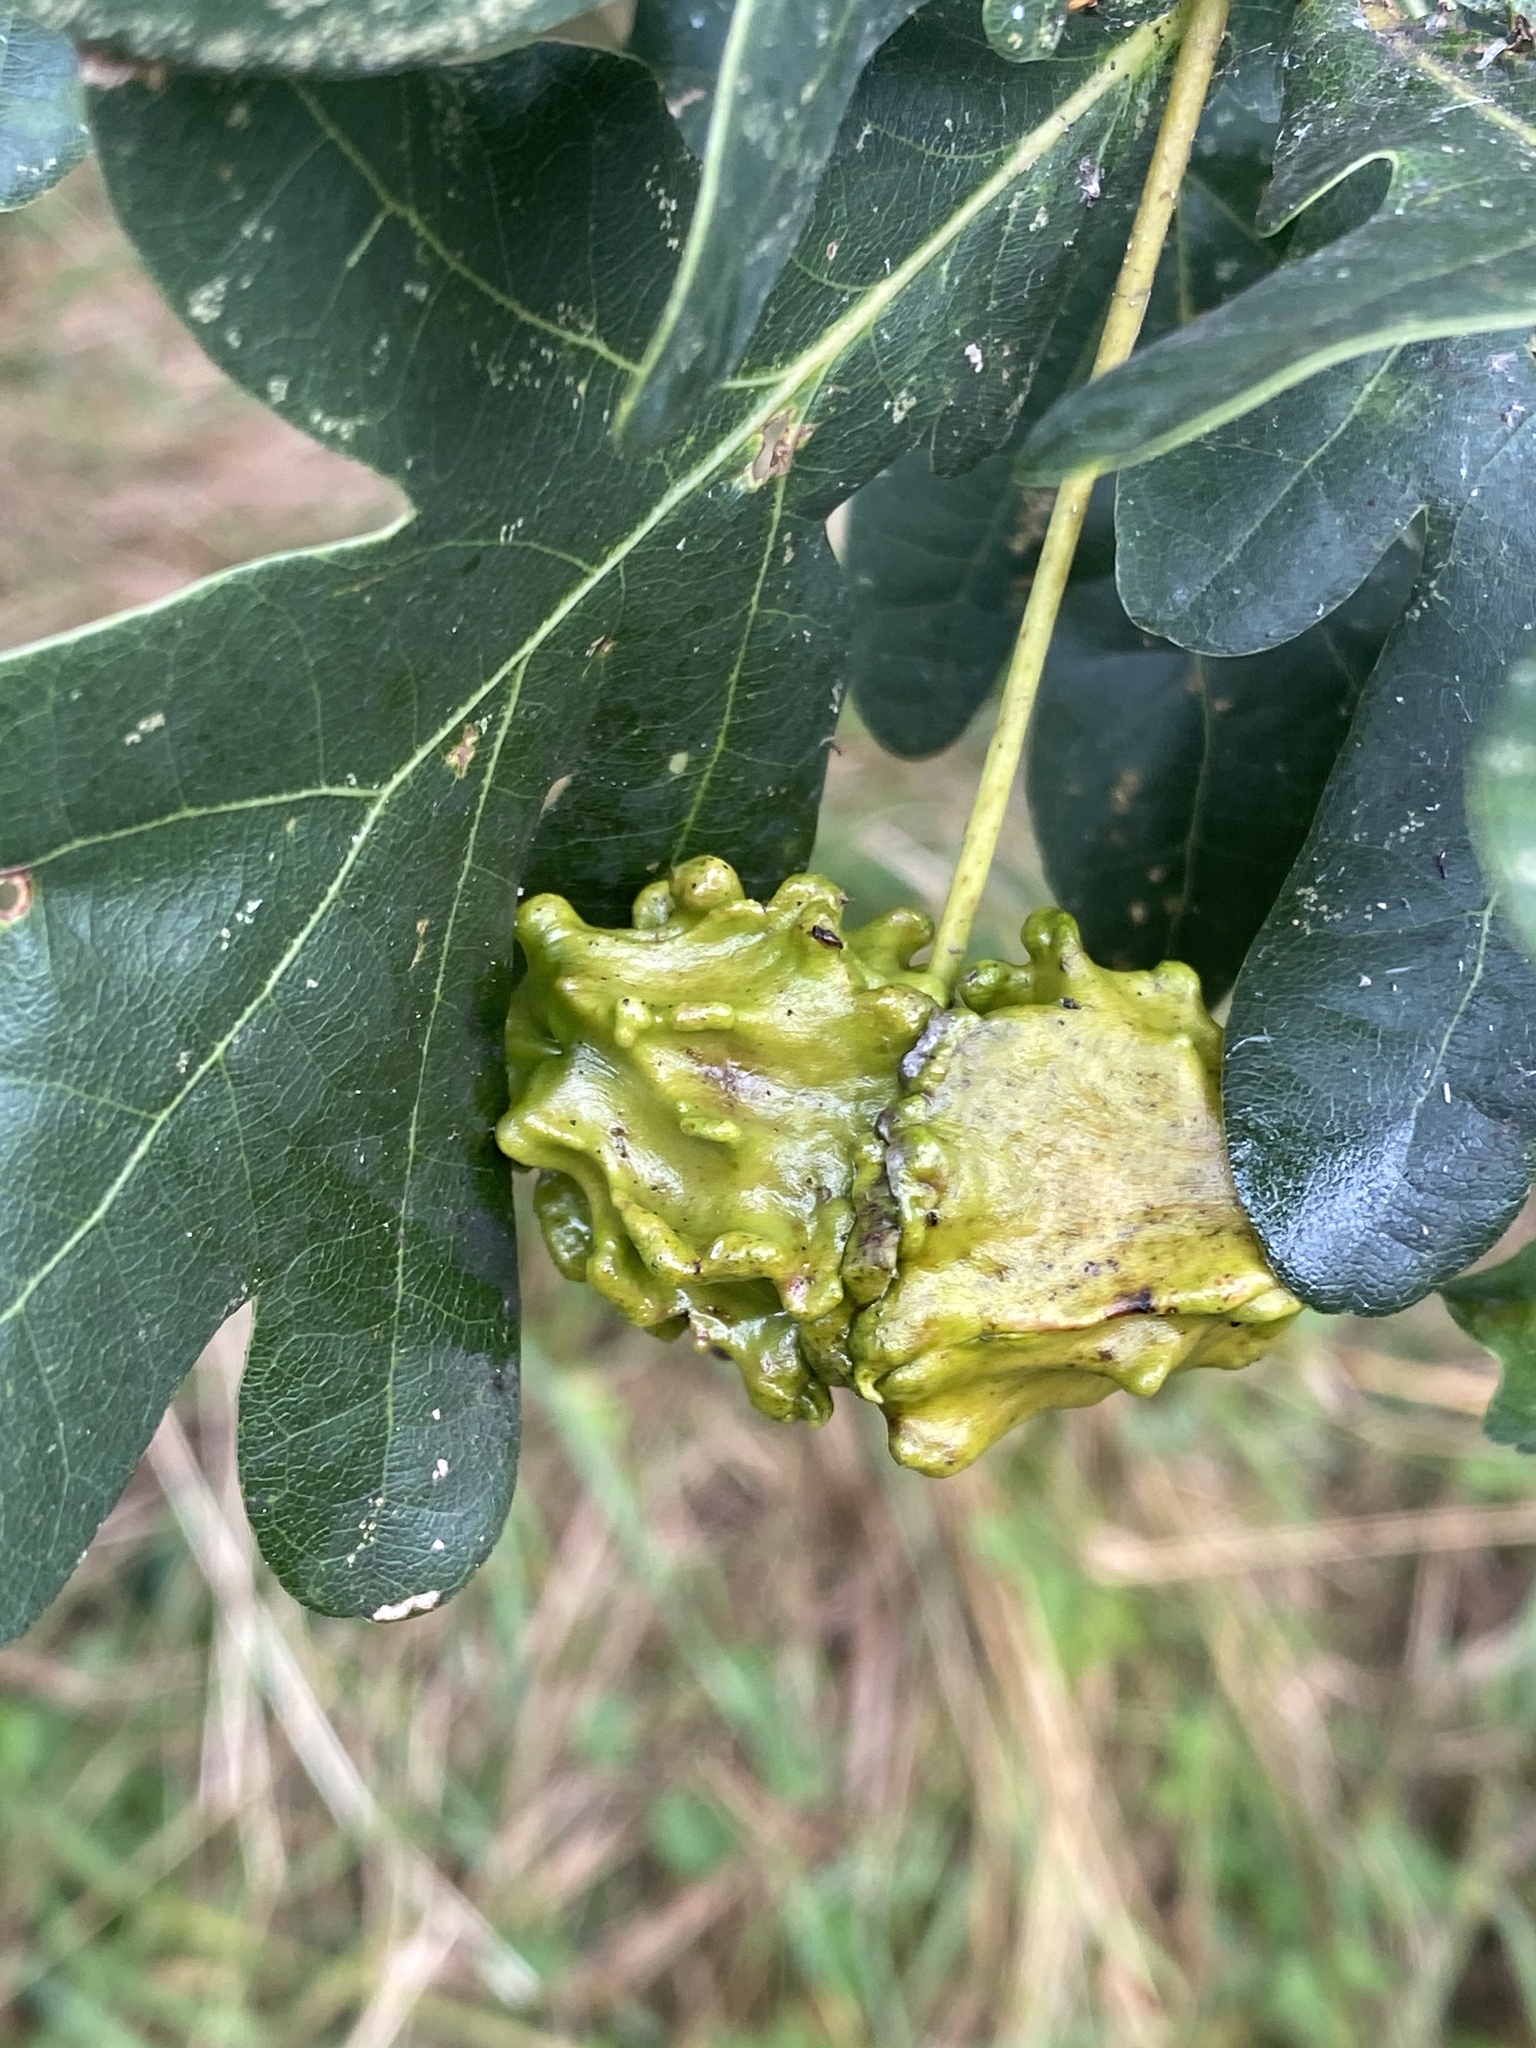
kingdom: Animalia
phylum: Arthropoda
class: Insecta
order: Hymenoptera
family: Cynipidae
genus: Andricus
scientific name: Andricus quercuscalicis
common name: Knopper gall
